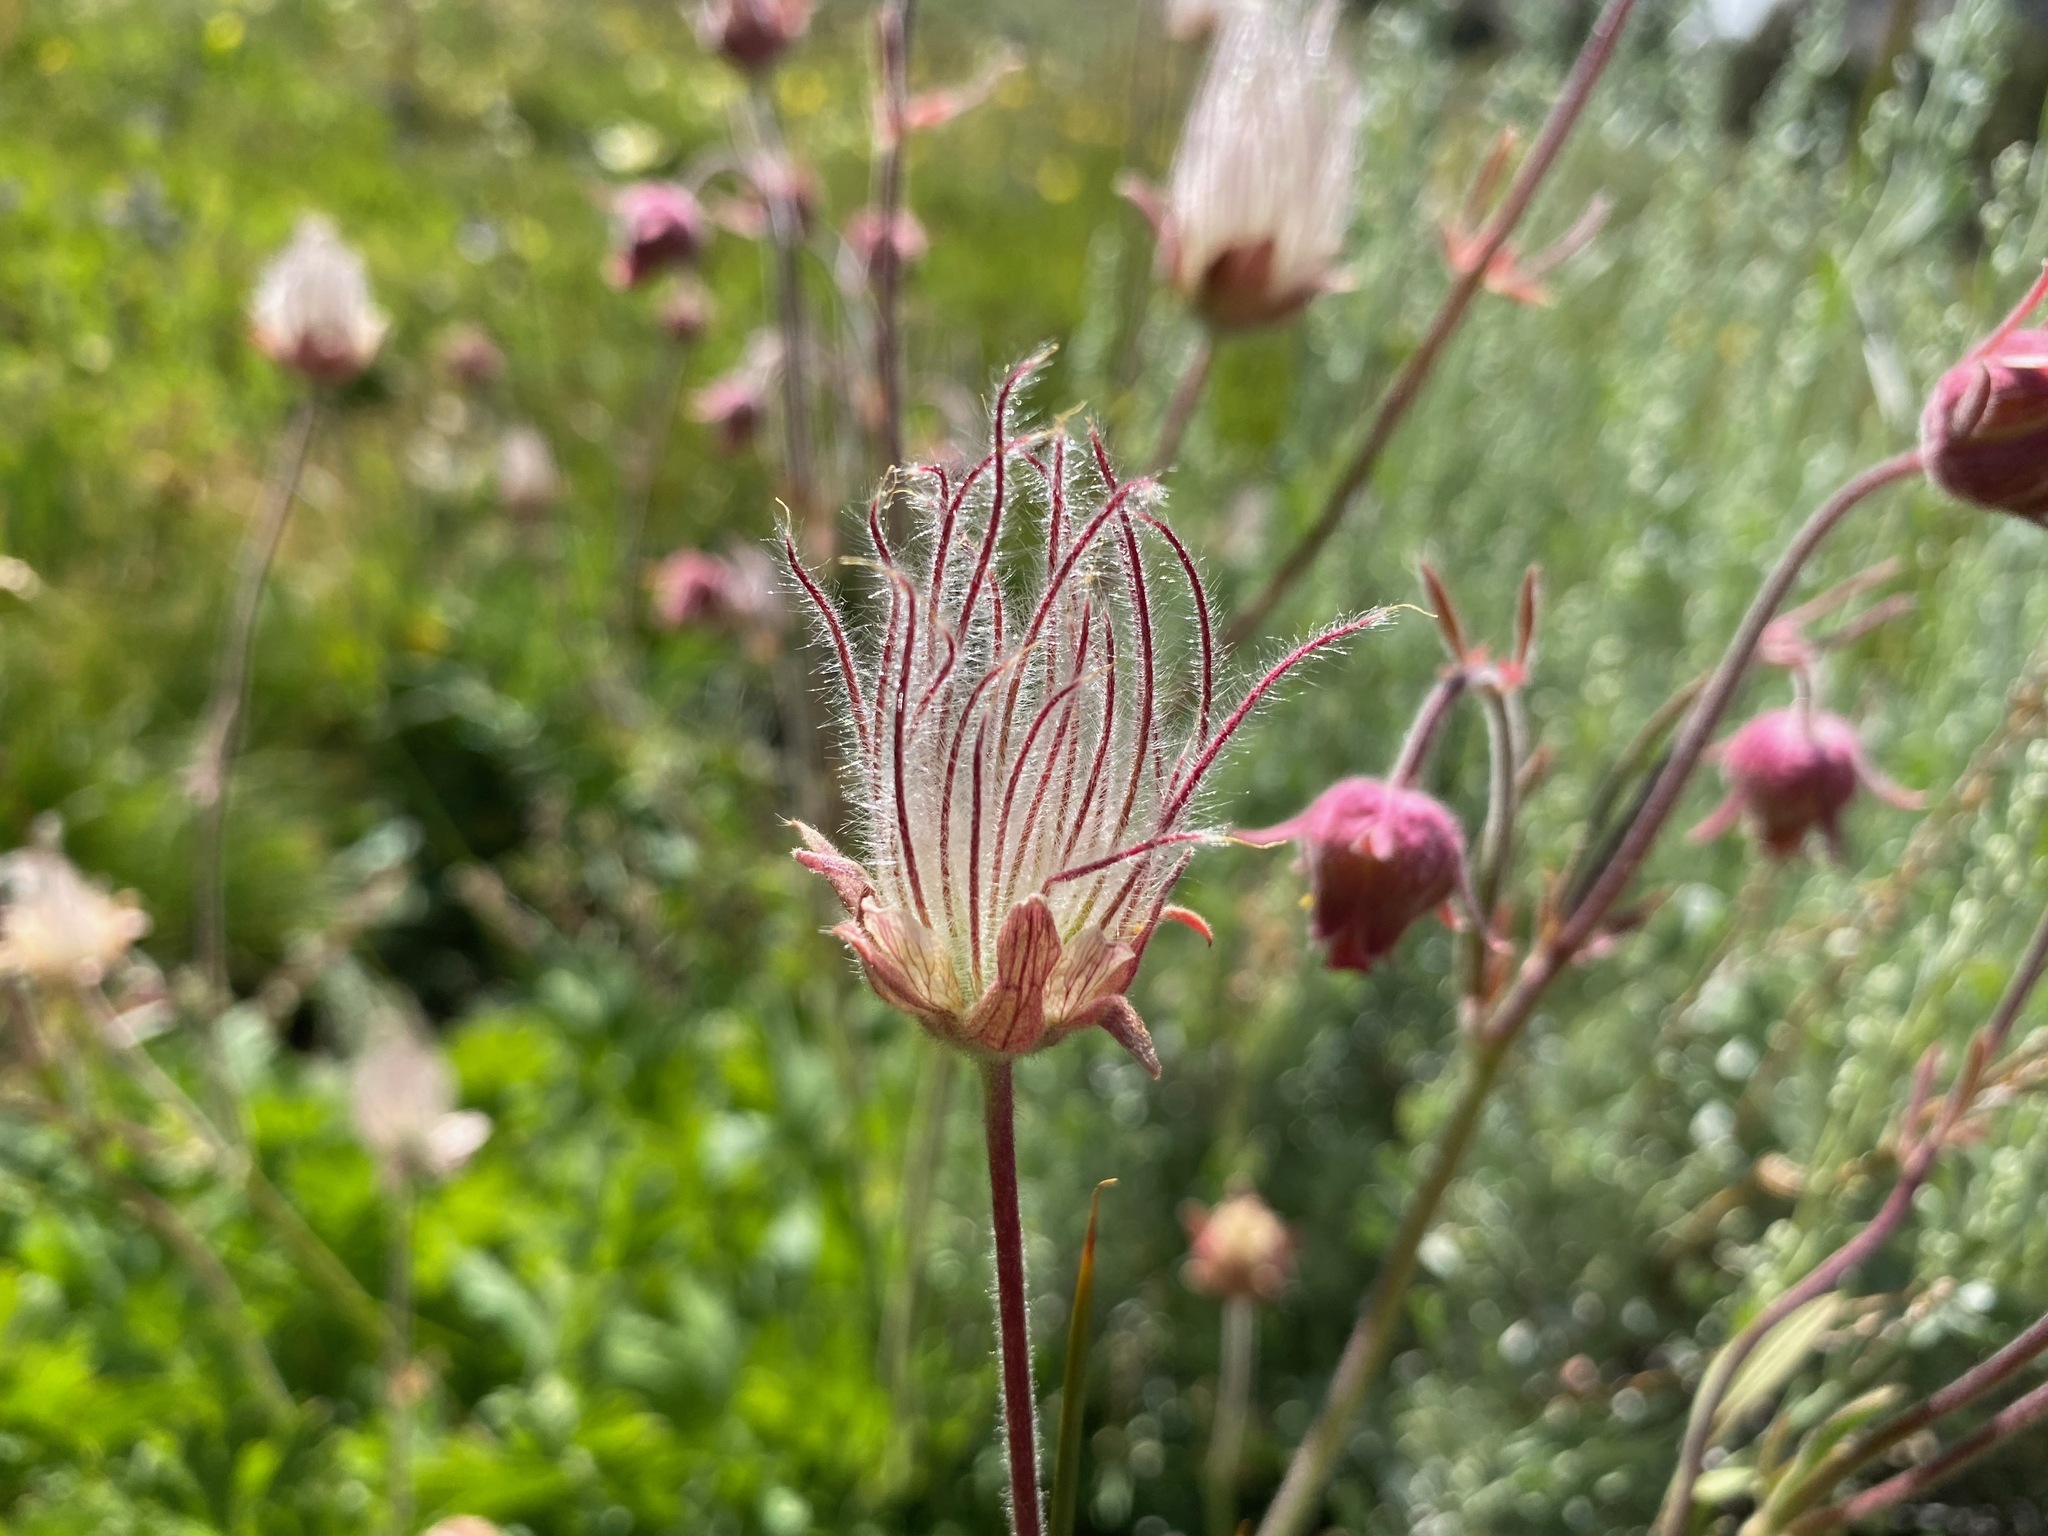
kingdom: Plantae
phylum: Tracheophyta
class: Magnoliopsida
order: Rosales
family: Rosaceae
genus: Geum
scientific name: Geum triflorum
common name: Old man's whiskers
